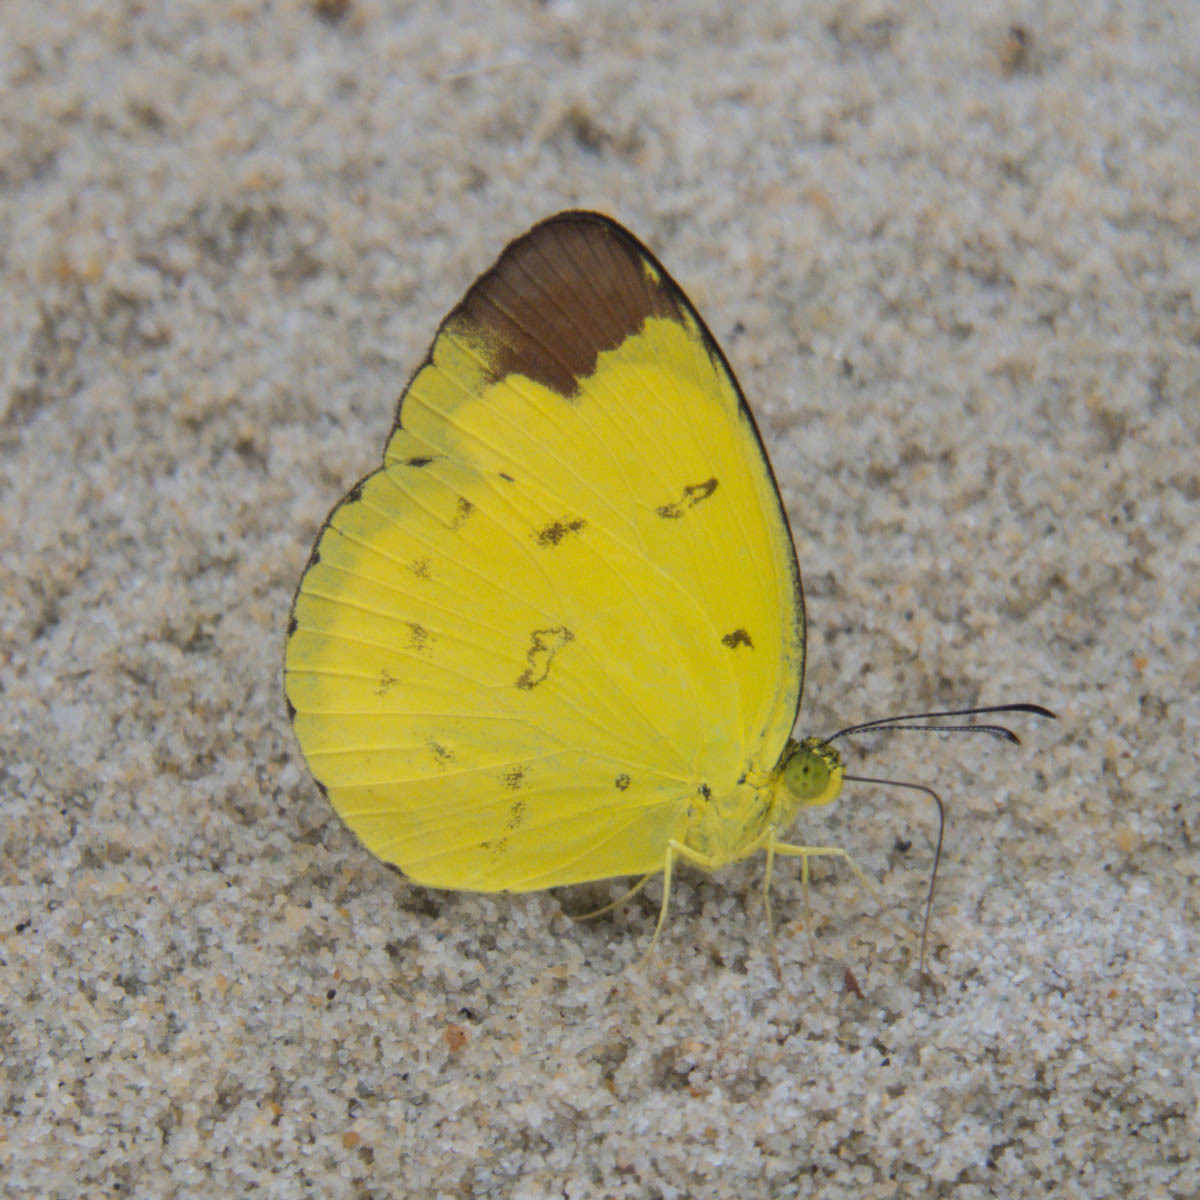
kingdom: Animalia
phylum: Arthropoda
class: Insecta
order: Lepidoptera
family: Pieridae
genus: Eurema
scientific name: Eurema sari
